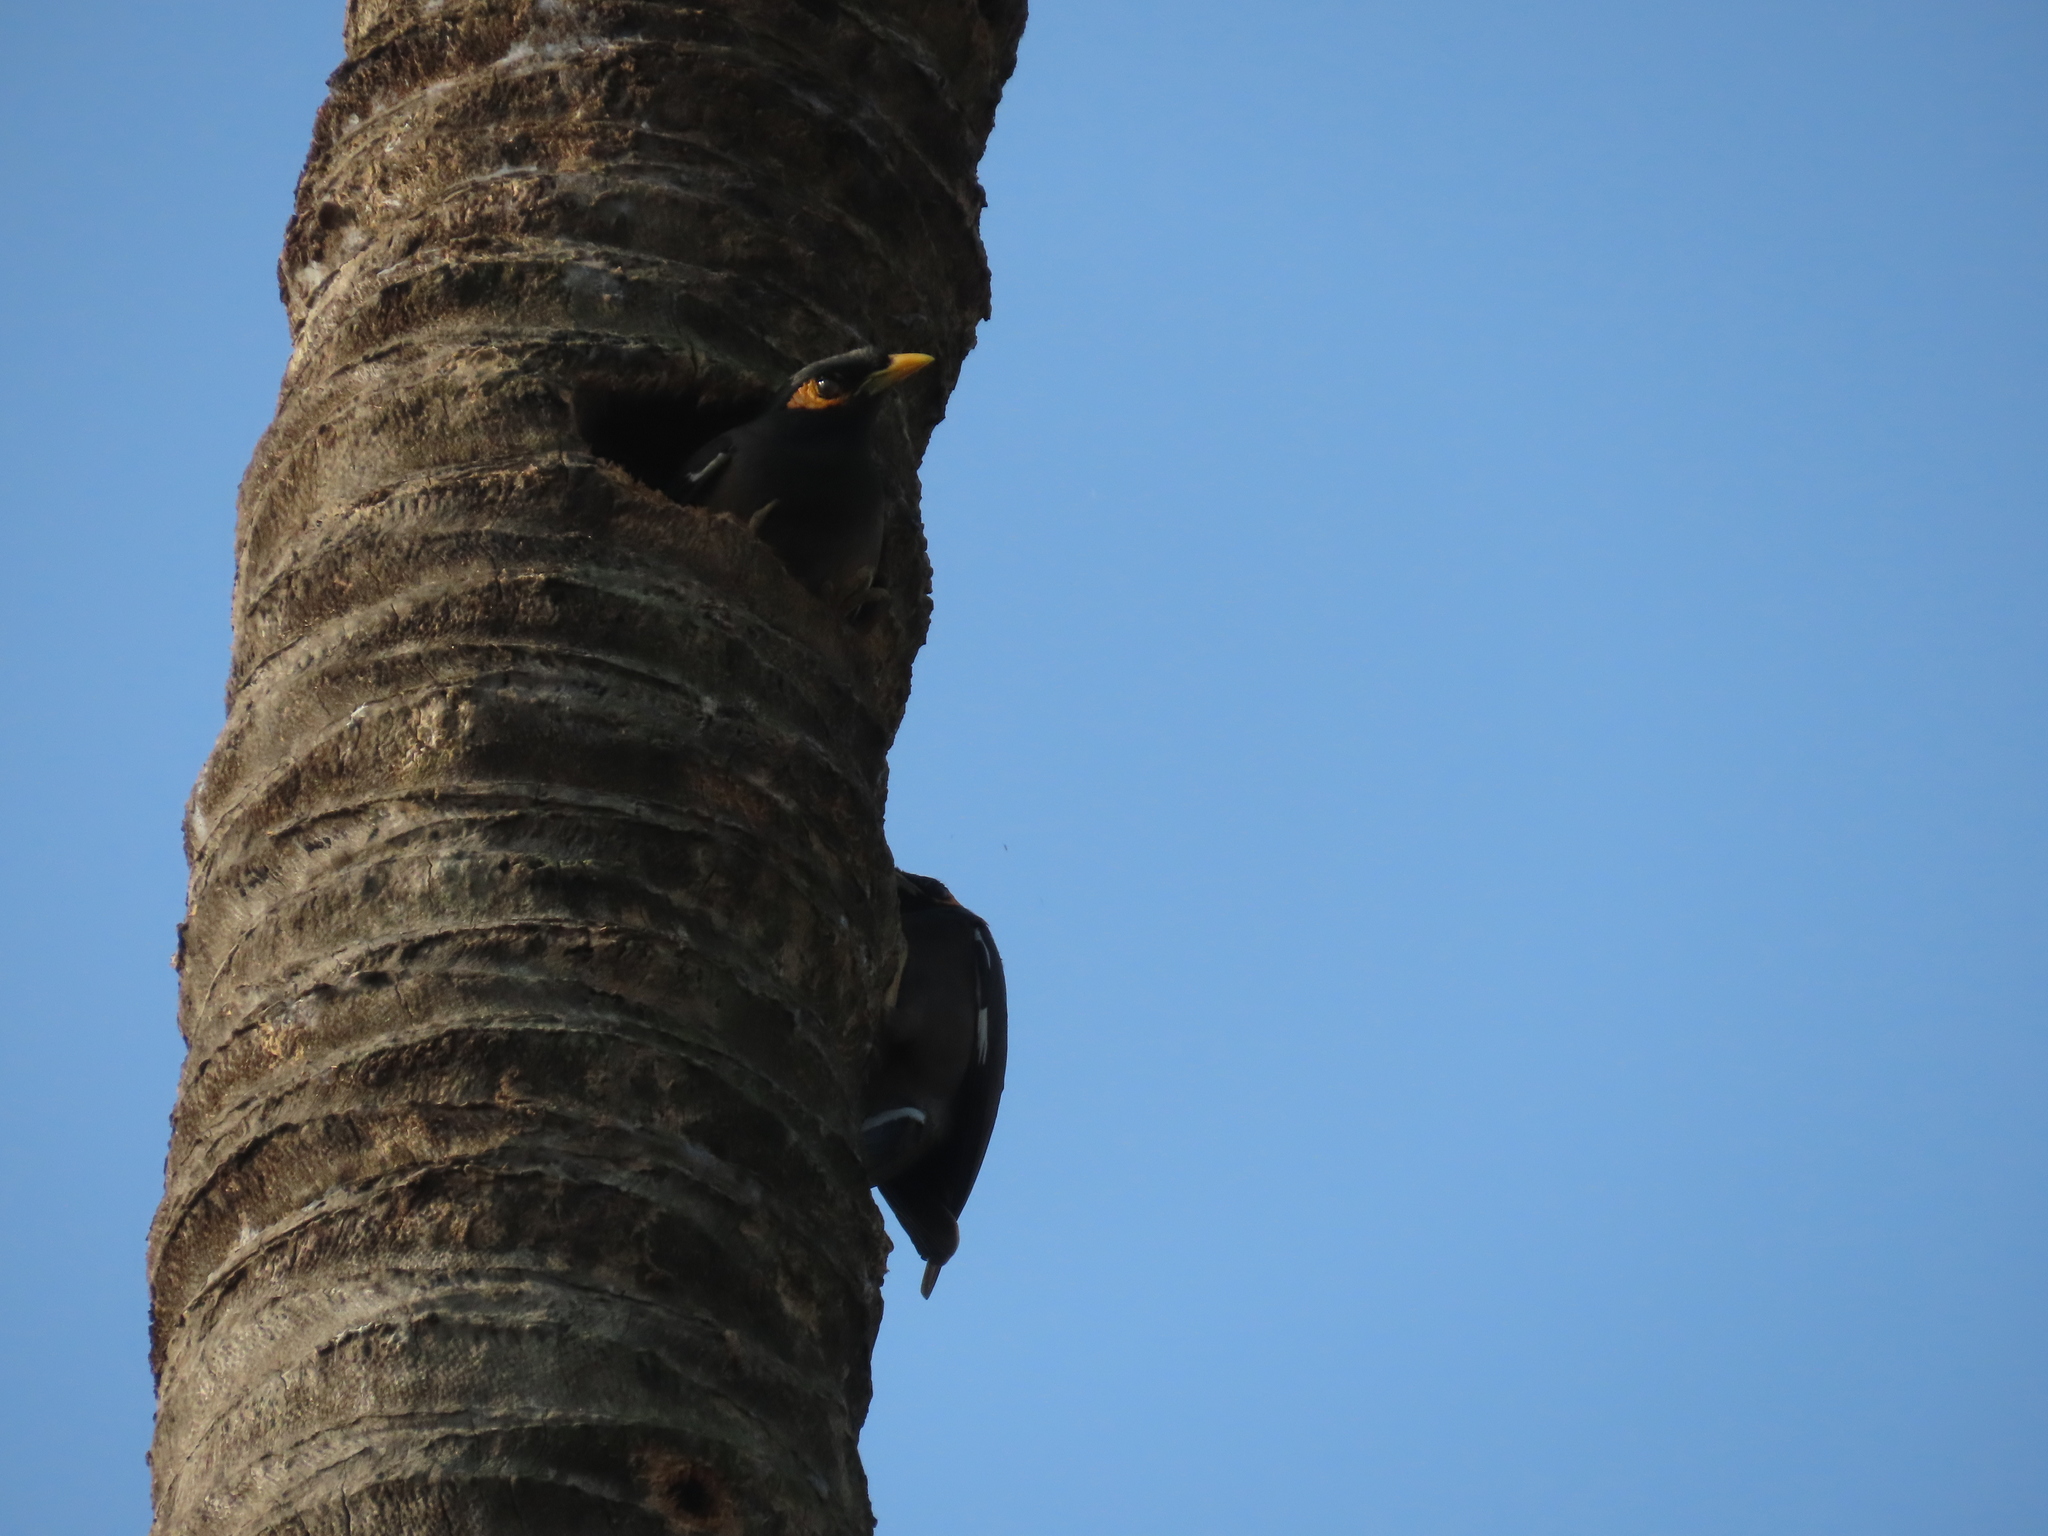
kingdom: Animalia
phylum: Chordata
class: Aves
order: Passeriformes
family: Sturnidae
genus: Acridotheres
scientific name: Acridotheres tristis
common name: Common myna
